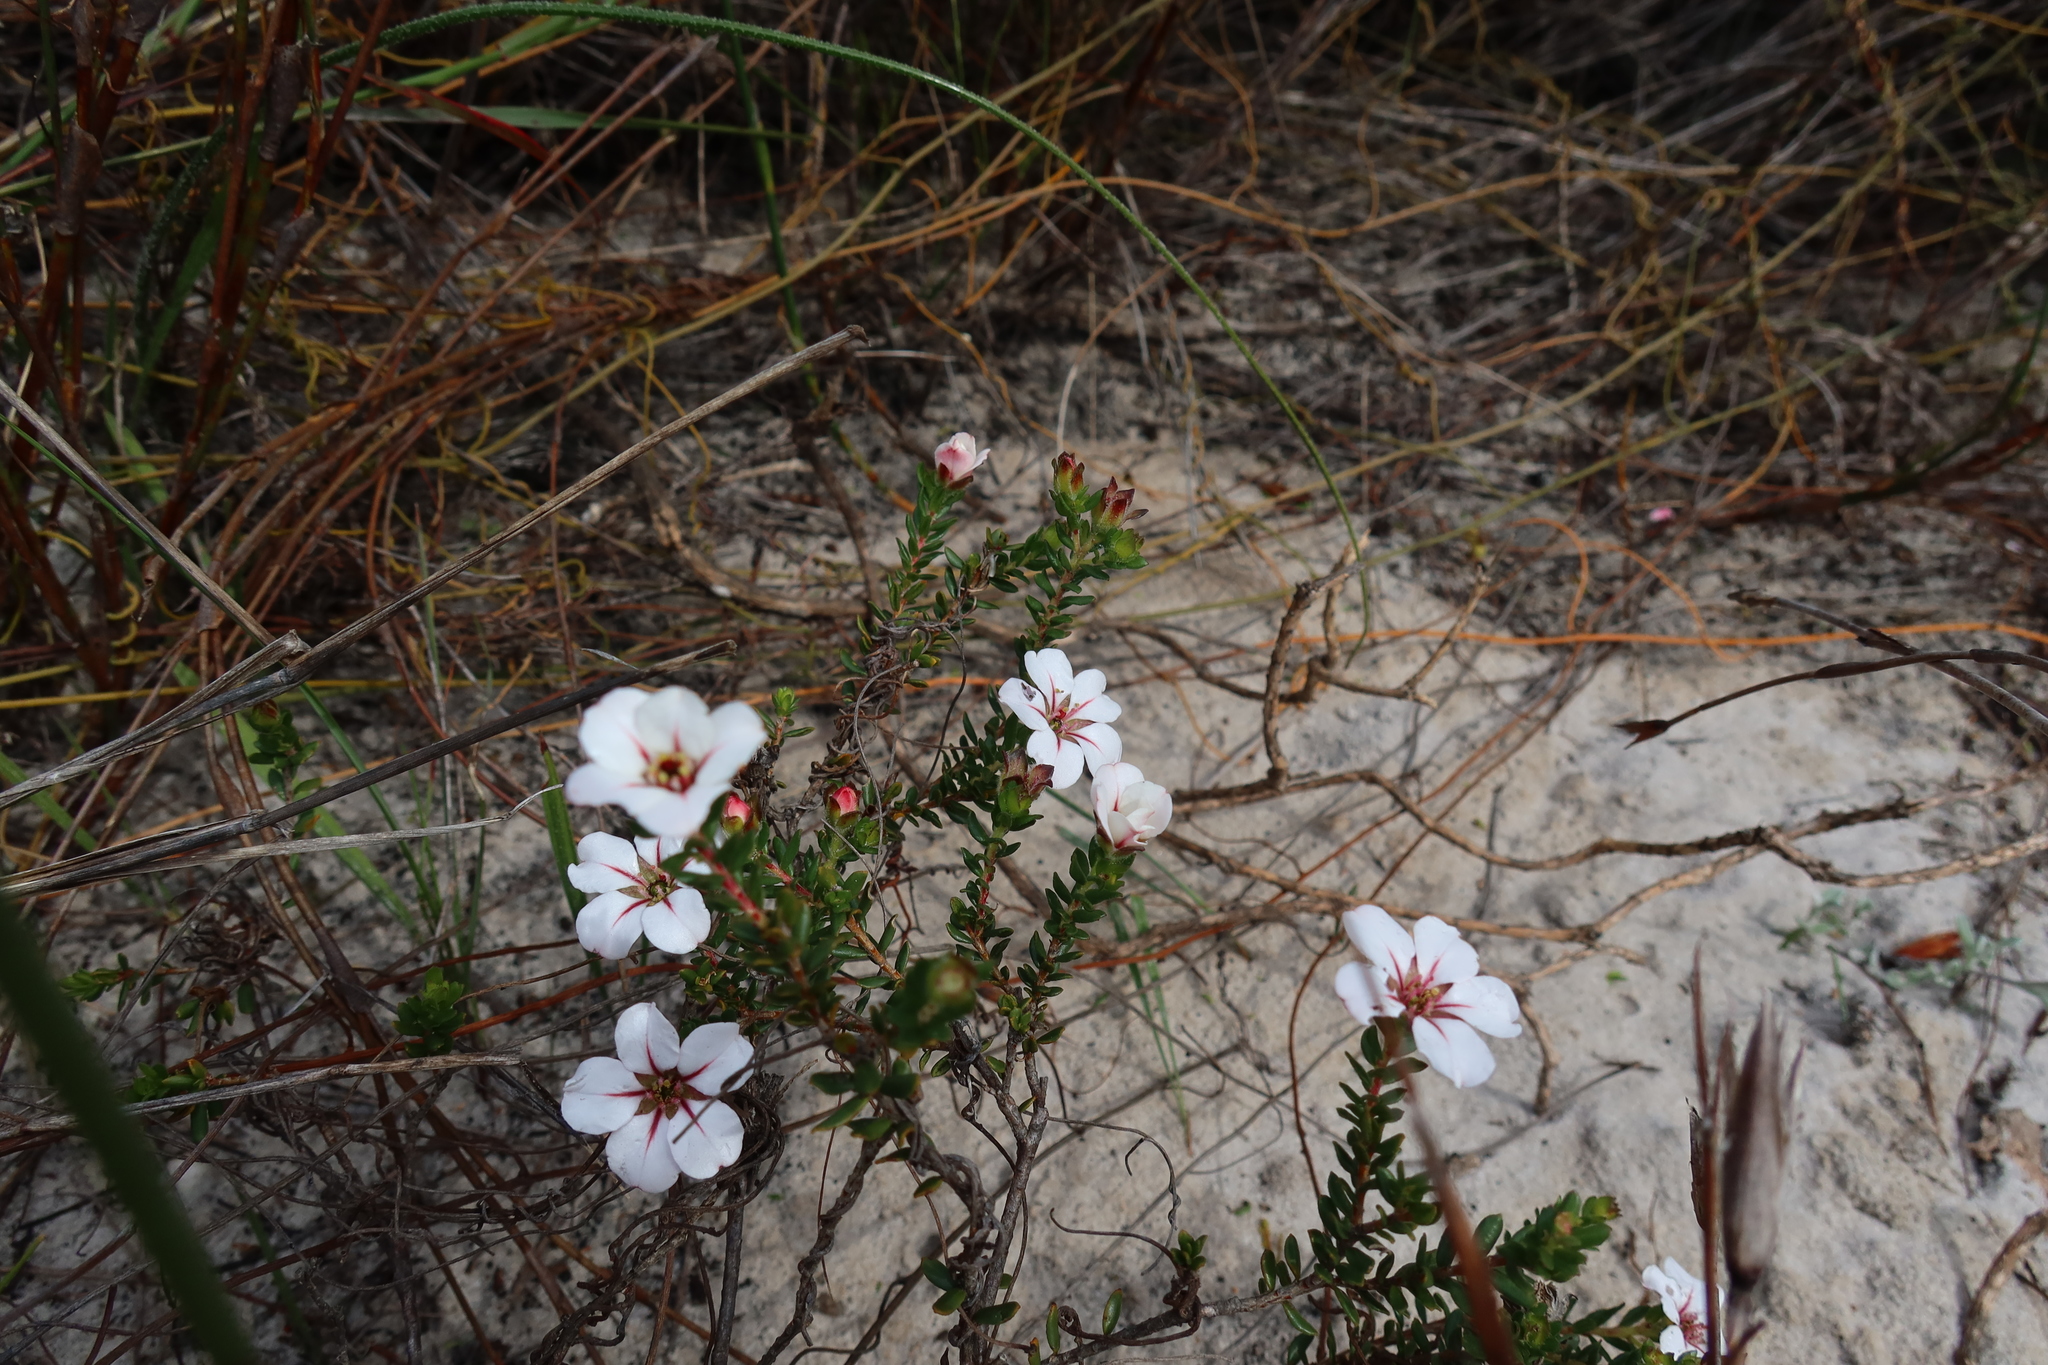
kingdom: Plantae
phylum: Tracheophyta
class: Magnoliopsida
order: Sapindales
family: Rutaceae
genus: Adenandra
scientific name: Adenandra villosa
